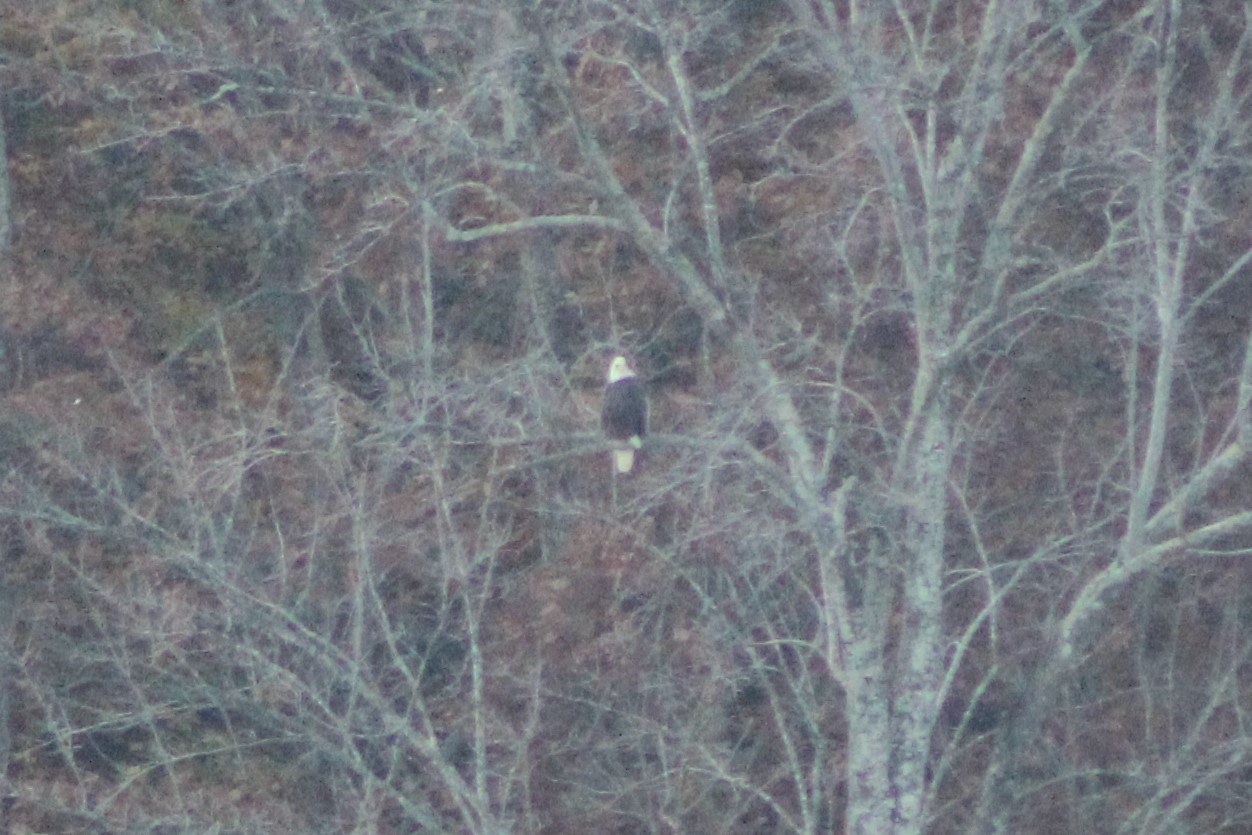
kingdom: Animalia
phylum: Chordata
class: Aves
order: Accipitriformes
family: Accipitridae
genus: Haliaeetus
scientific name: Haliaeetus leucocephalus
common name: Bald eagle
